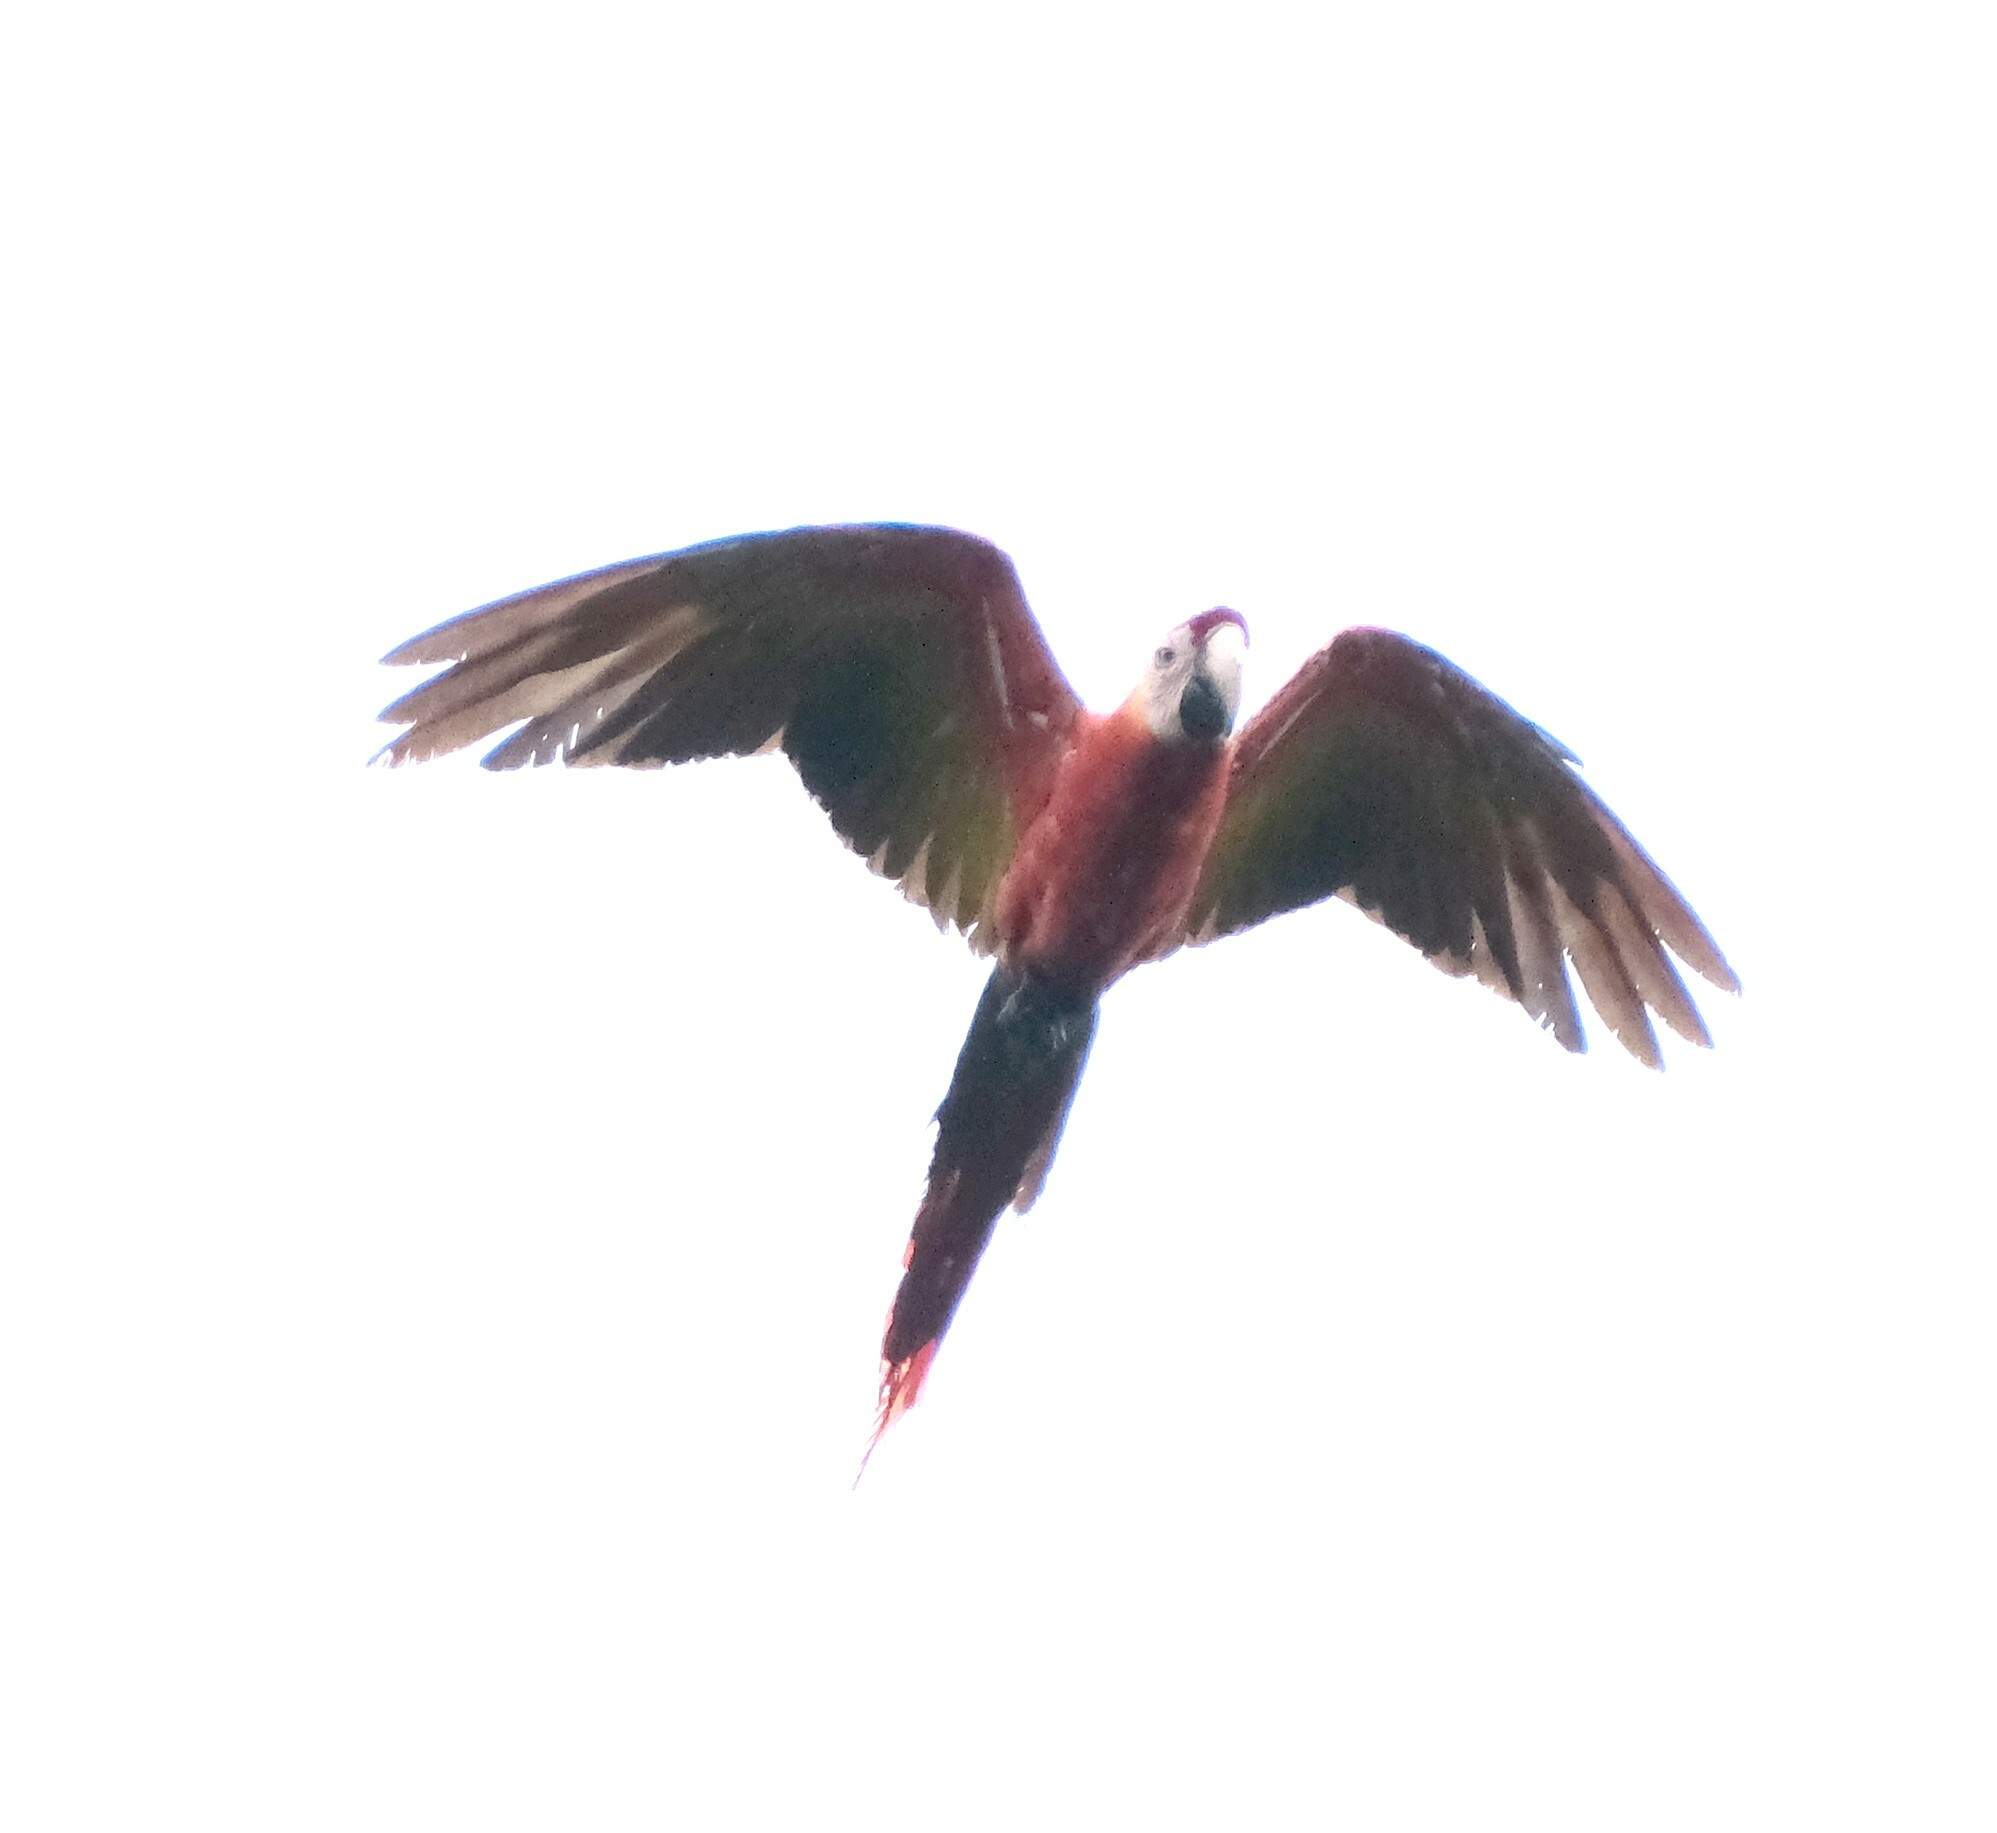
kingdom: Animalia
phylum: Chordata
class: Aves
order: Psittaciformes
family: Psittacidae
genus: Ara
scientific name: Ara macao
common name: Scarlet macaw
